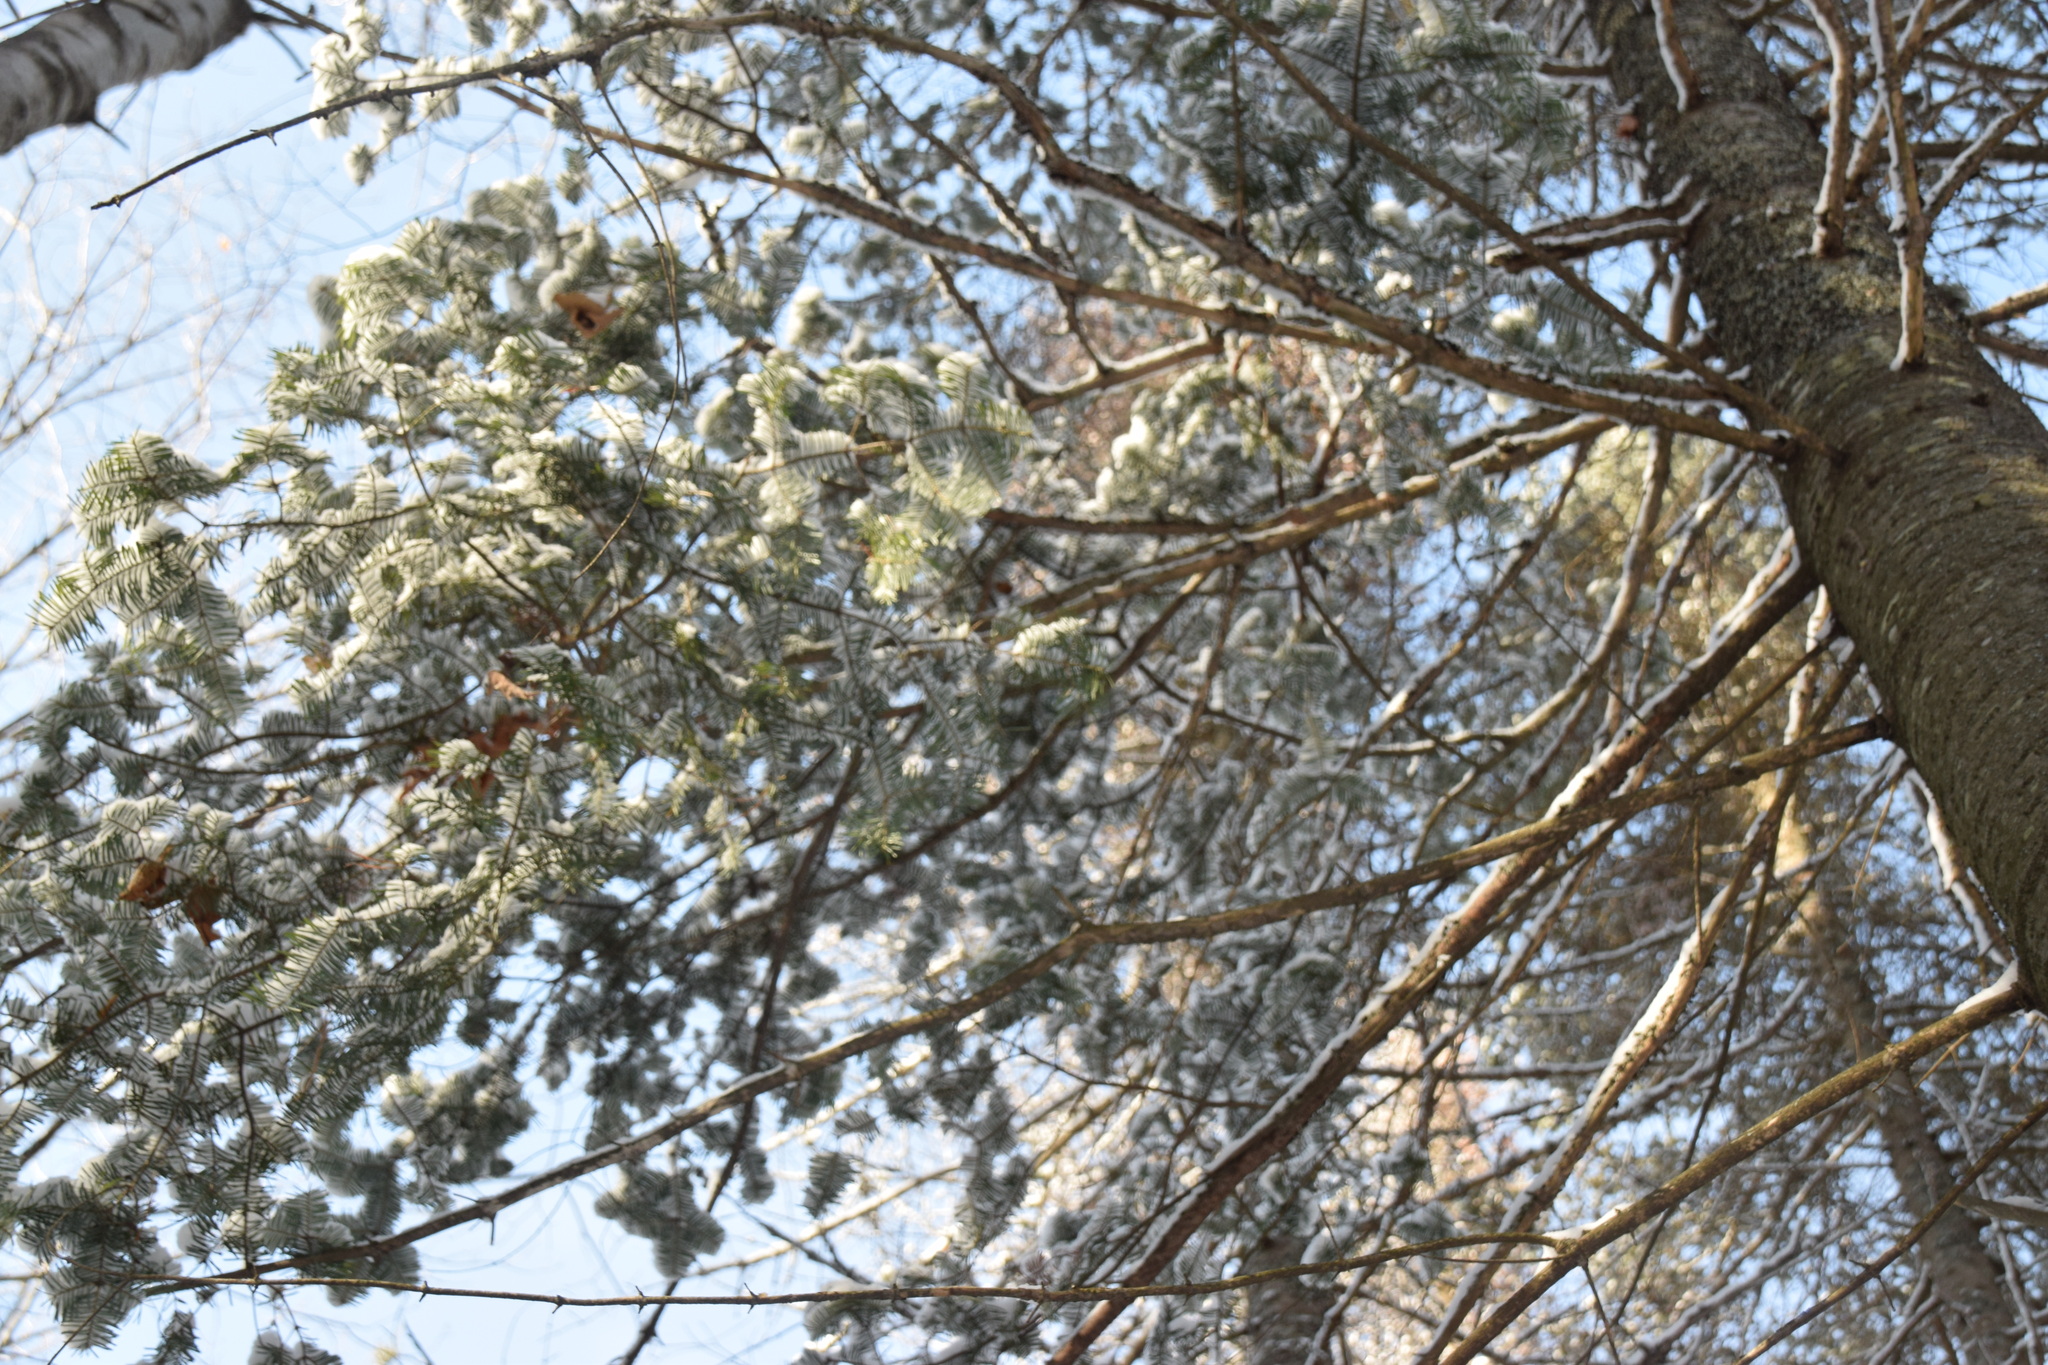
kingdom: Plantae
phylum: Tracheophyta
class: Pinopsida
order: Pinales
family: Pinaceae
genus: Abies
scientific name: Abies balsamea
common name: Balsam fir
